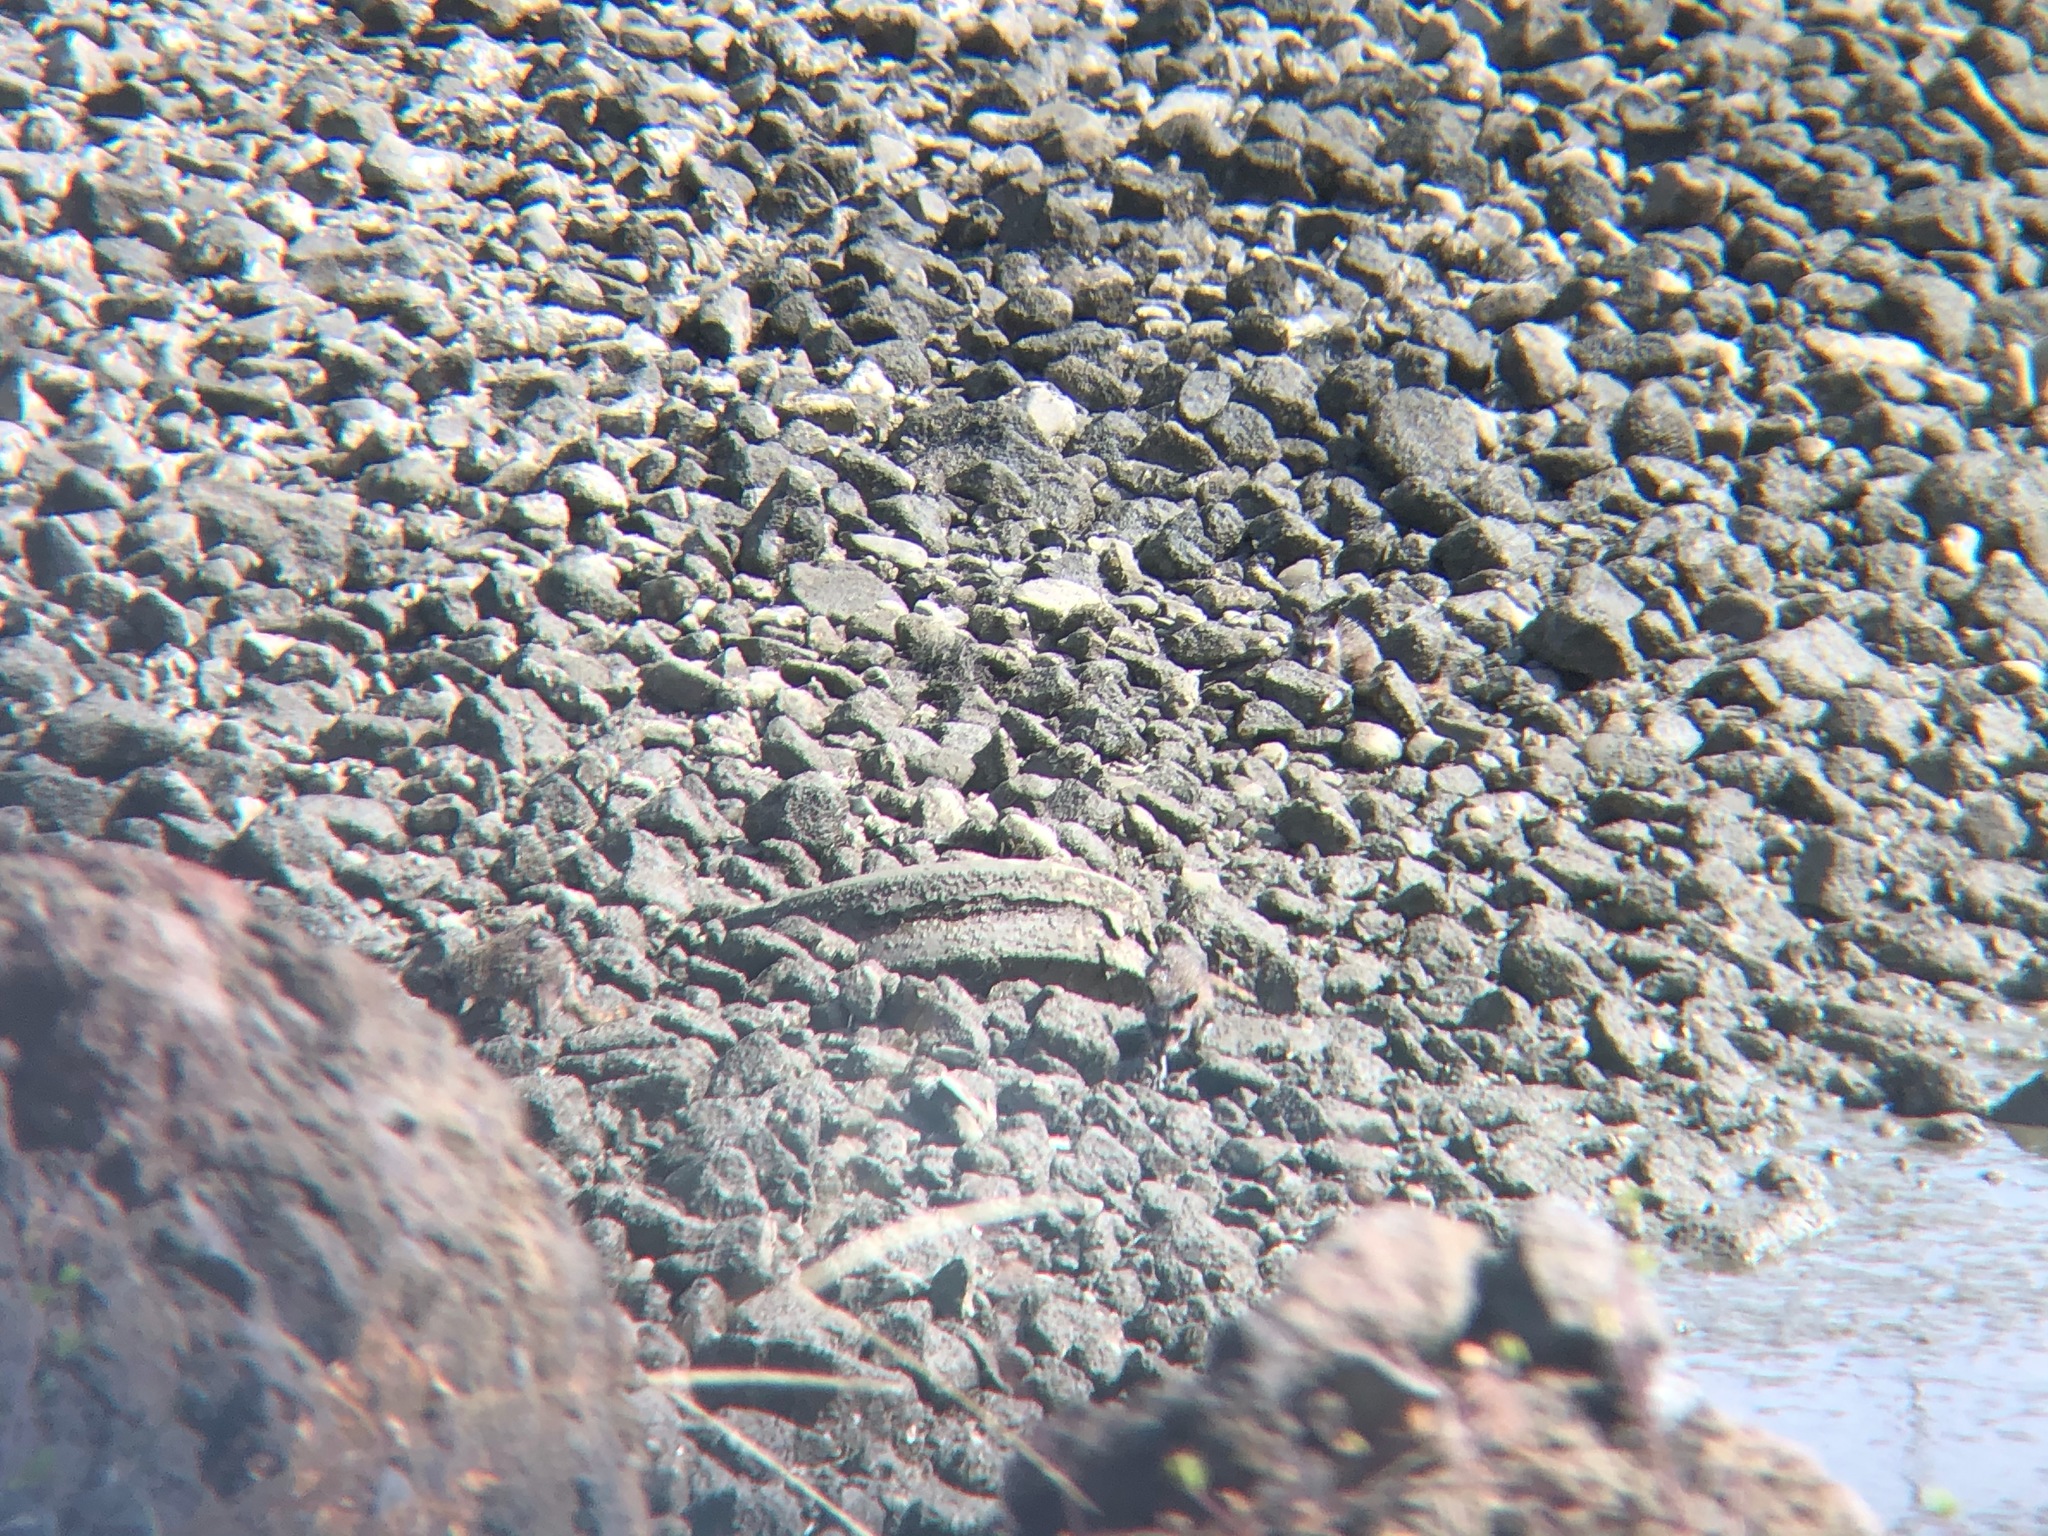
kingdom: Animalia
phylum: Chordata
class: Mammalia
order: Carnivora
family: Procyonidae
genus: Procyon
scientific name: Procyon lotor
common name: Raccoon
